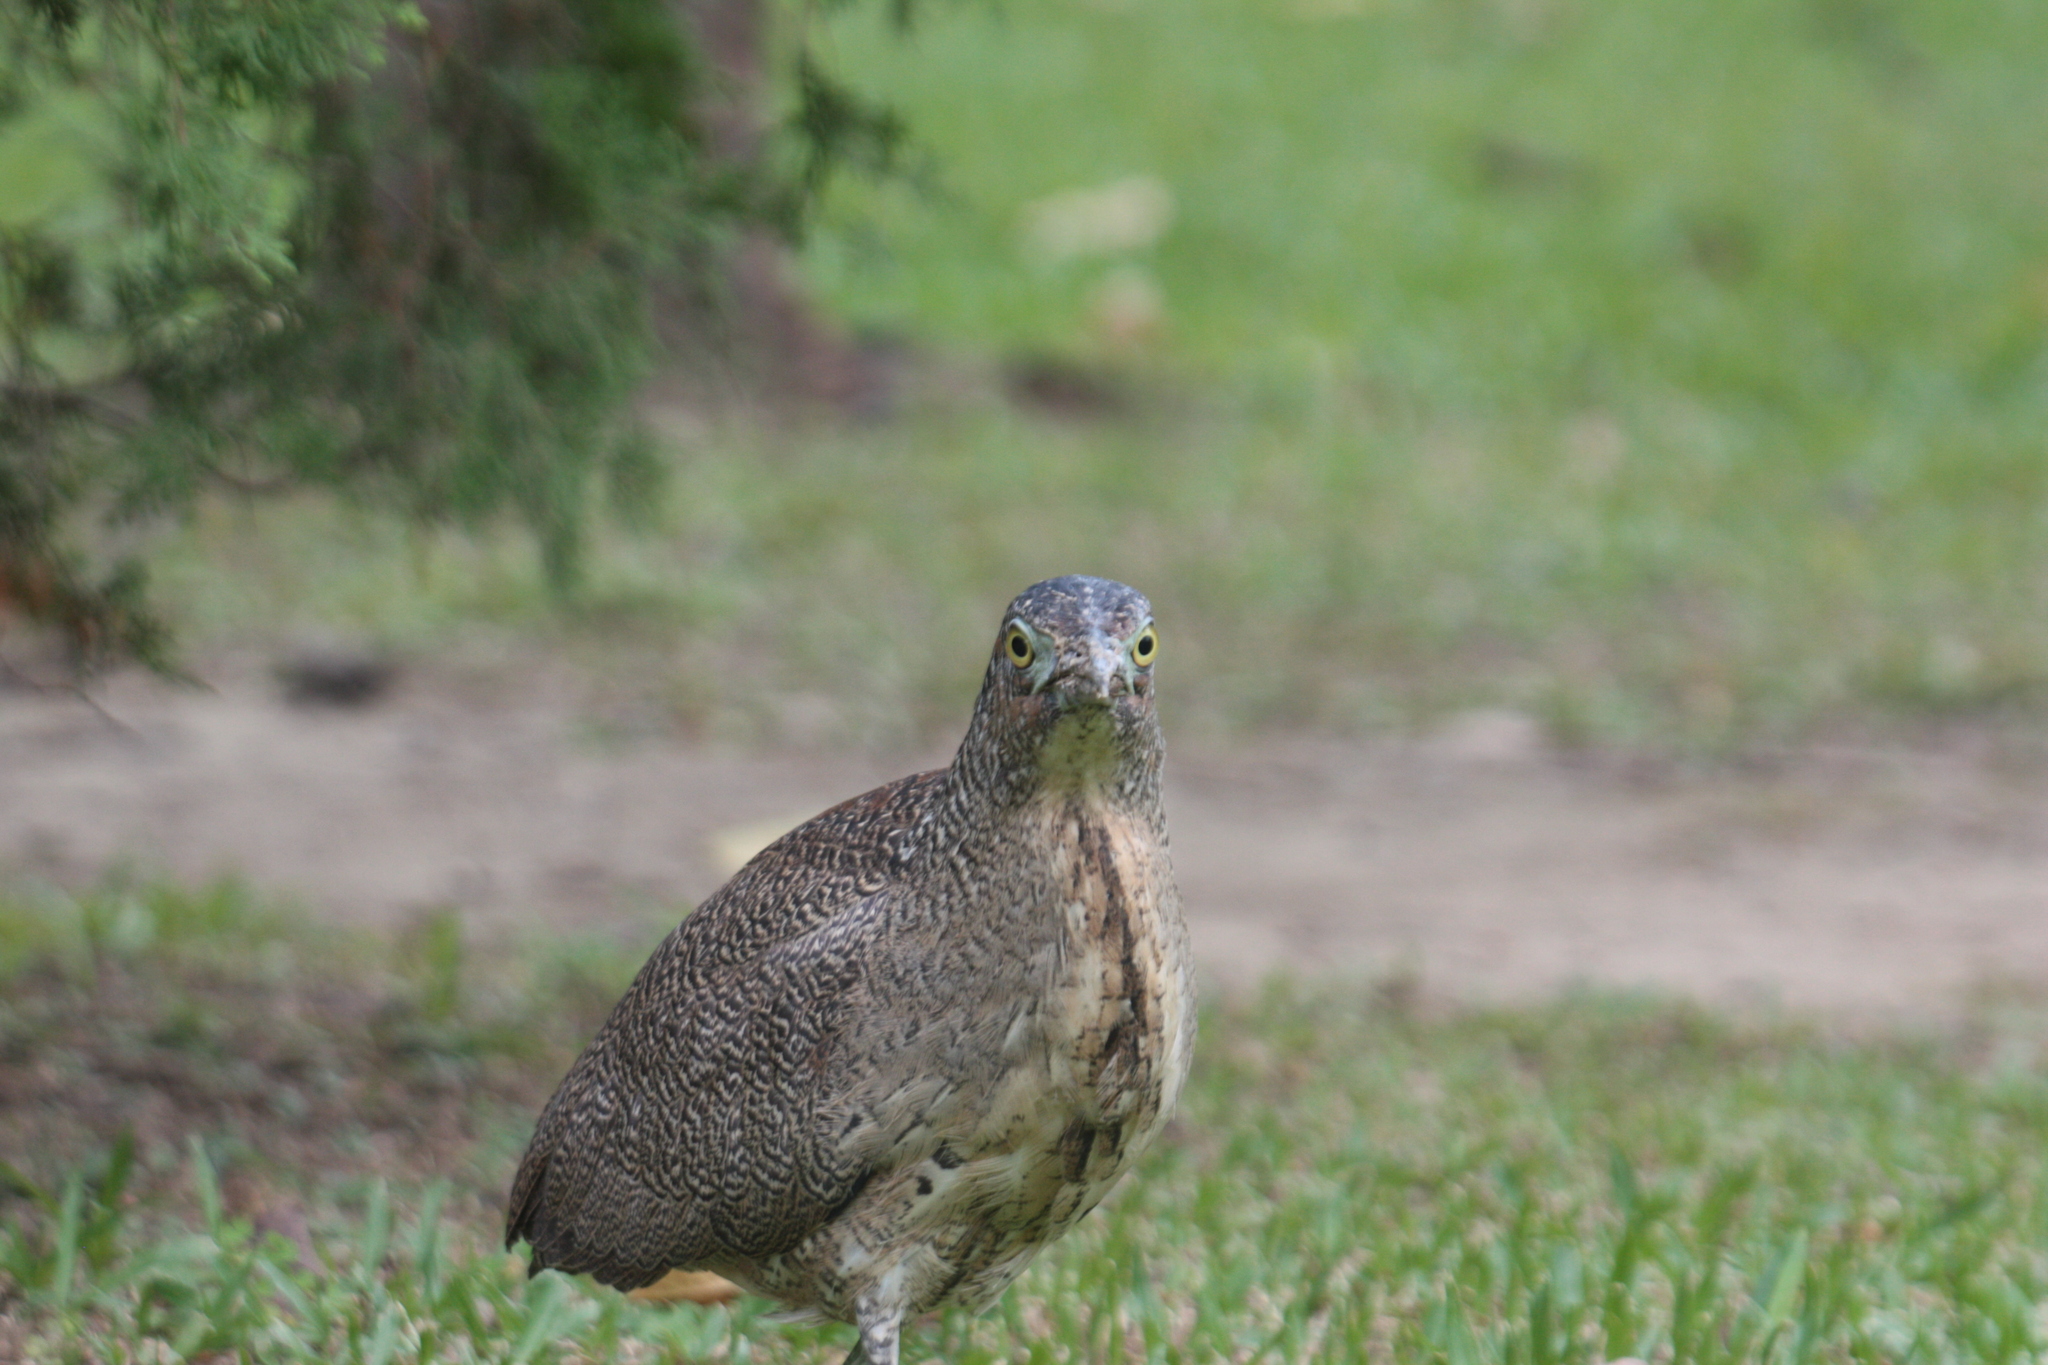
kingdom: Animalia
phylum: Chordata
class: Aves
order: Pelecaniformes
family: Ardeidae
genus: Gorsachius
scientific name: Gorsachius melanolophus
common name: Malayan night heron
